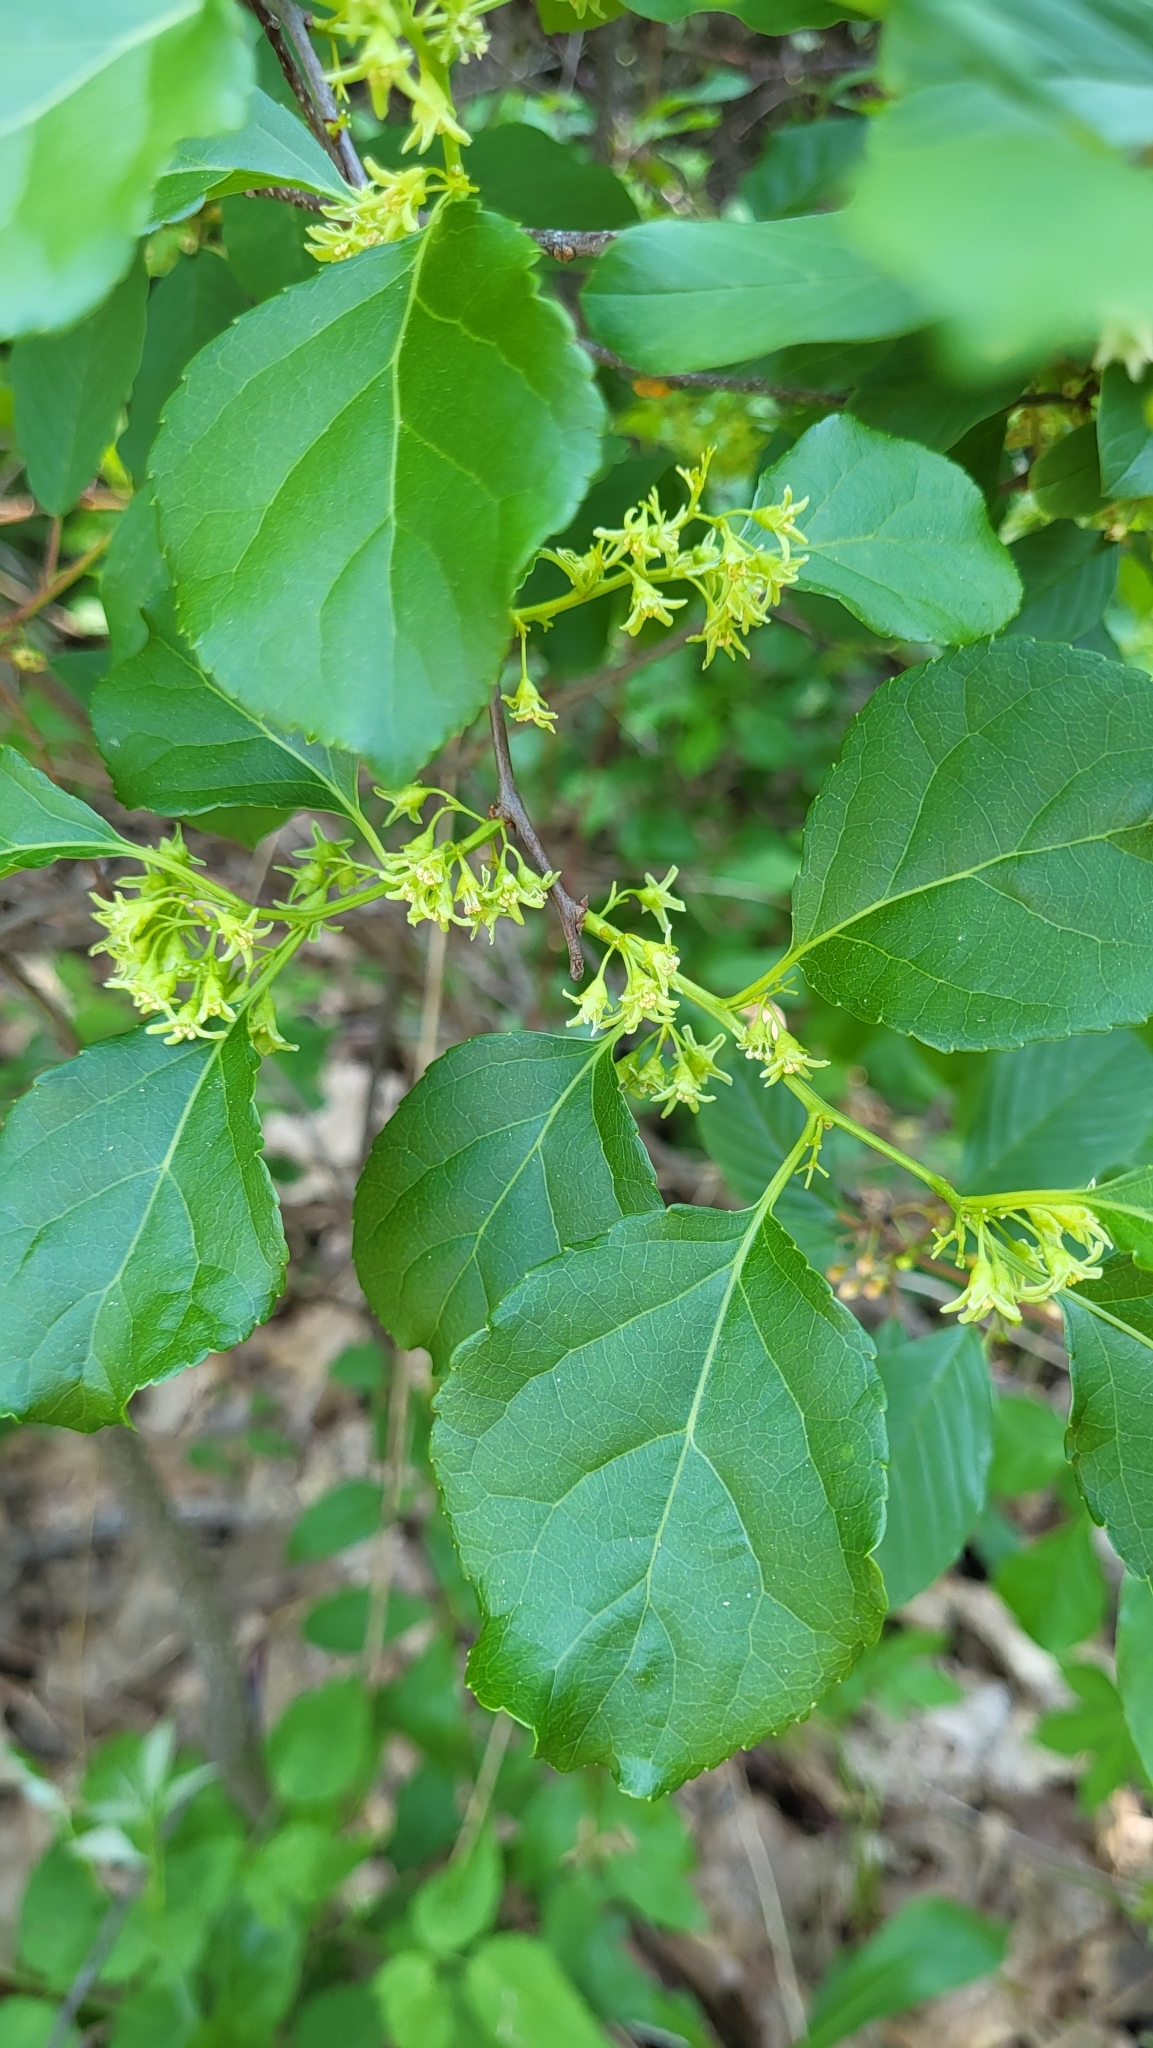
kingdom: Plantae
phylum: Tracheophyta
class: Magnoliopsida
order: Celastrales
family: Celastraceae
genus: Celastrus
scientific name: Celastrus orbiculatus
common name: Oriental bittersweet
